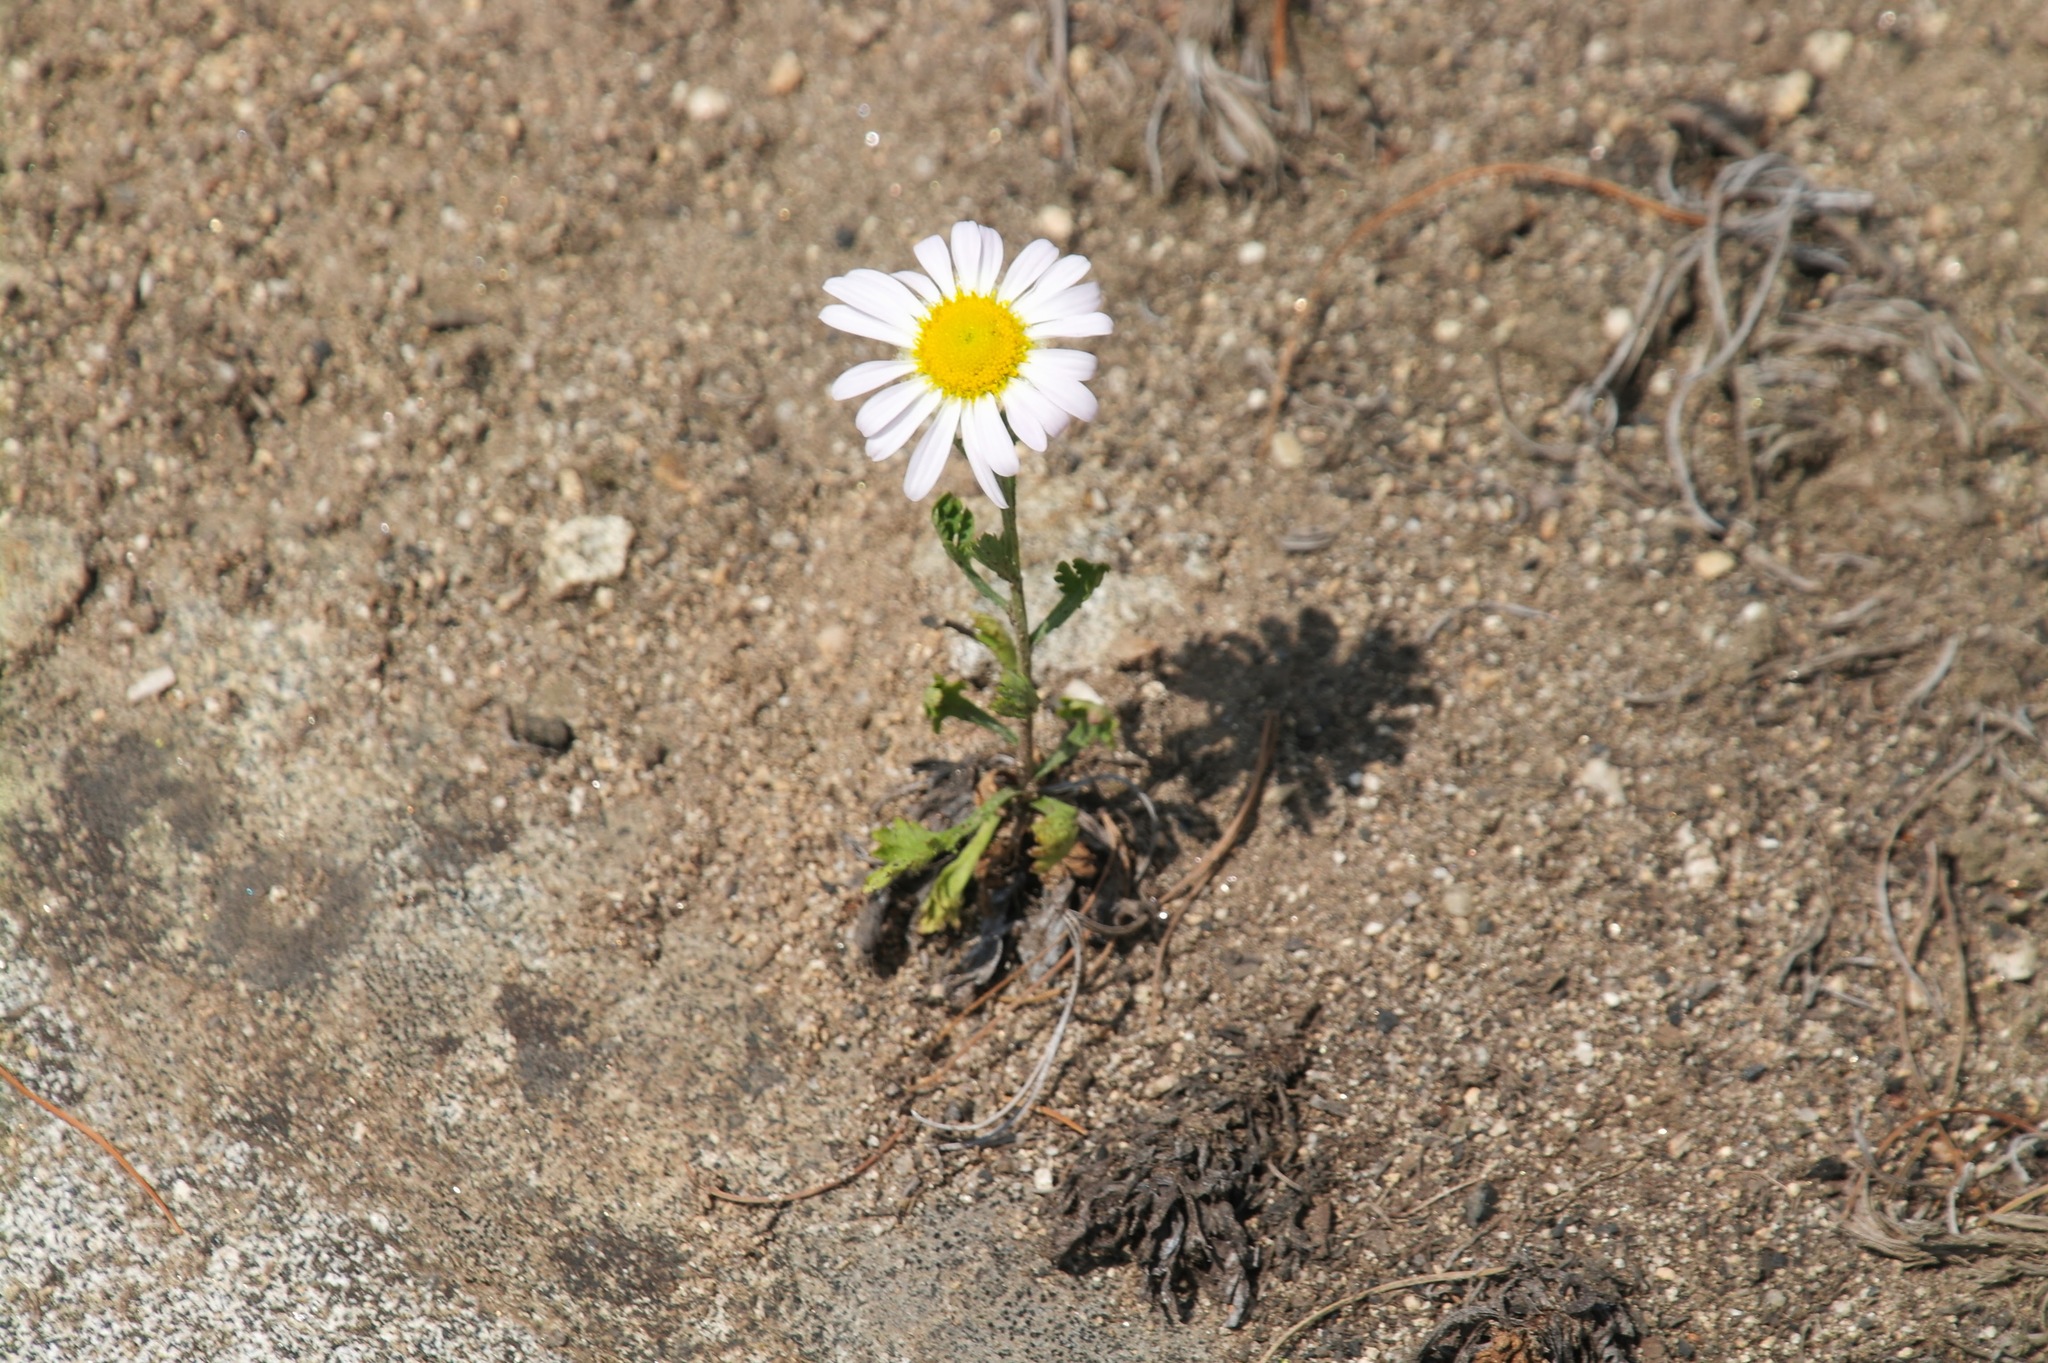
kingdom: Plantae
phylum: Tracheophyta
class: Magnoliopsida
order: Asterales
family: Asteraceae
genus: Chrysanthemum
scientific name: Chrysanthemum zawadzkii
